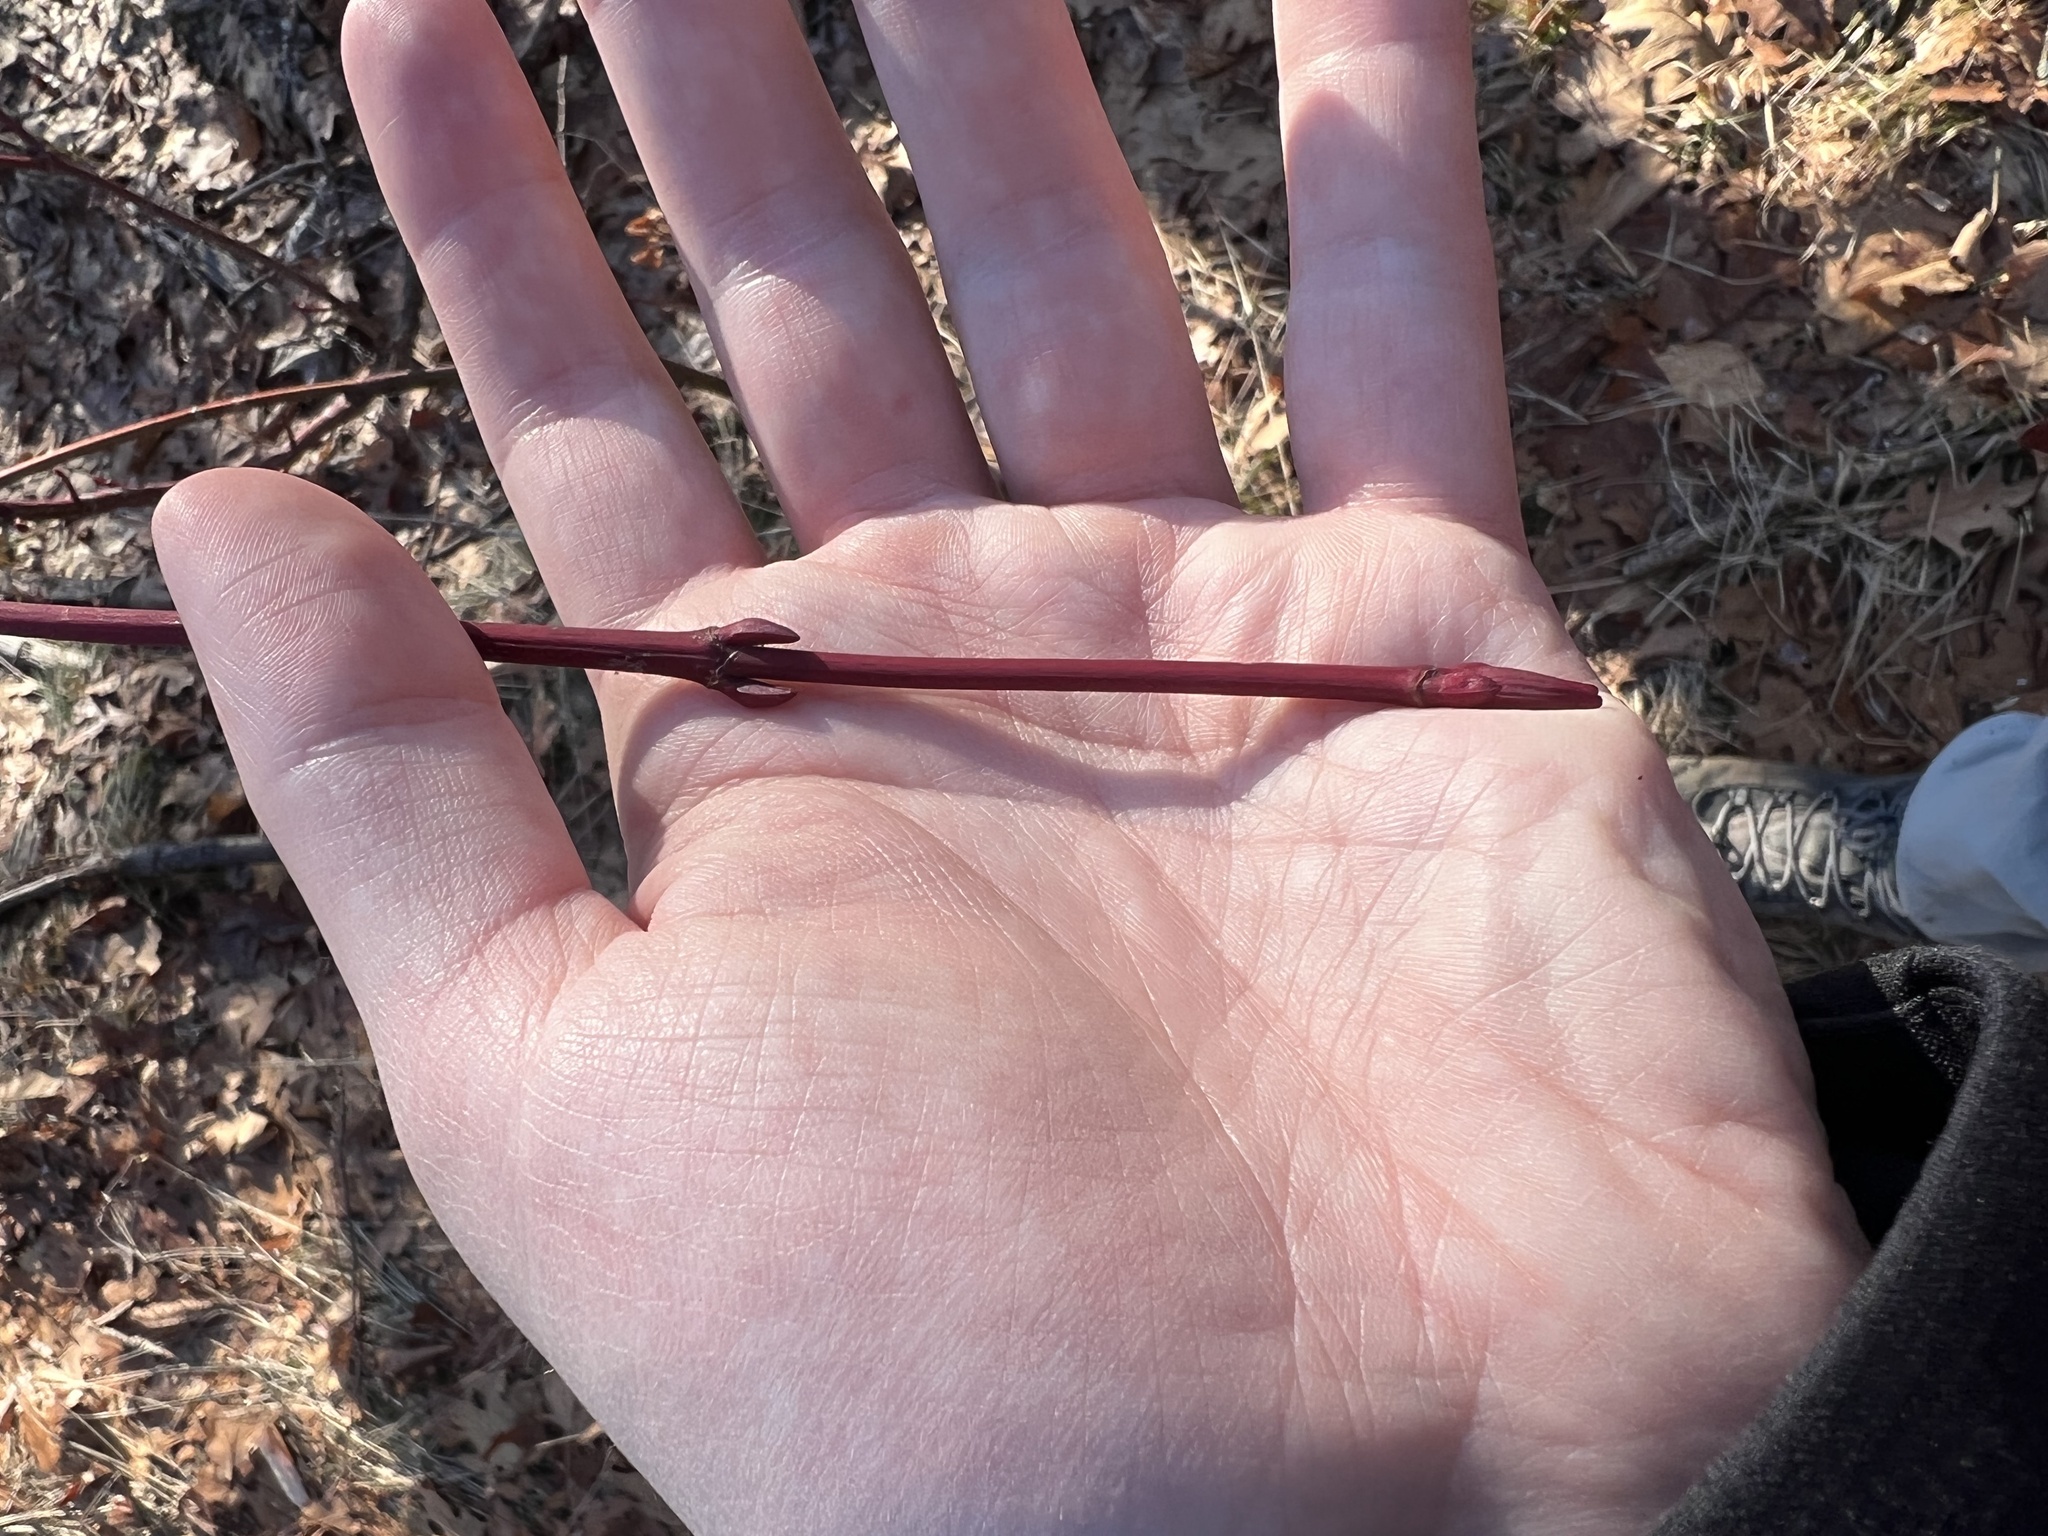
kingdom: Plantae
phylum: Tracheophyta
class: Magnoliopsida
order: Sapindales
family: Sapindaceae
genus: Acer
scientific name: Acer rubrum
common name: Red maple
